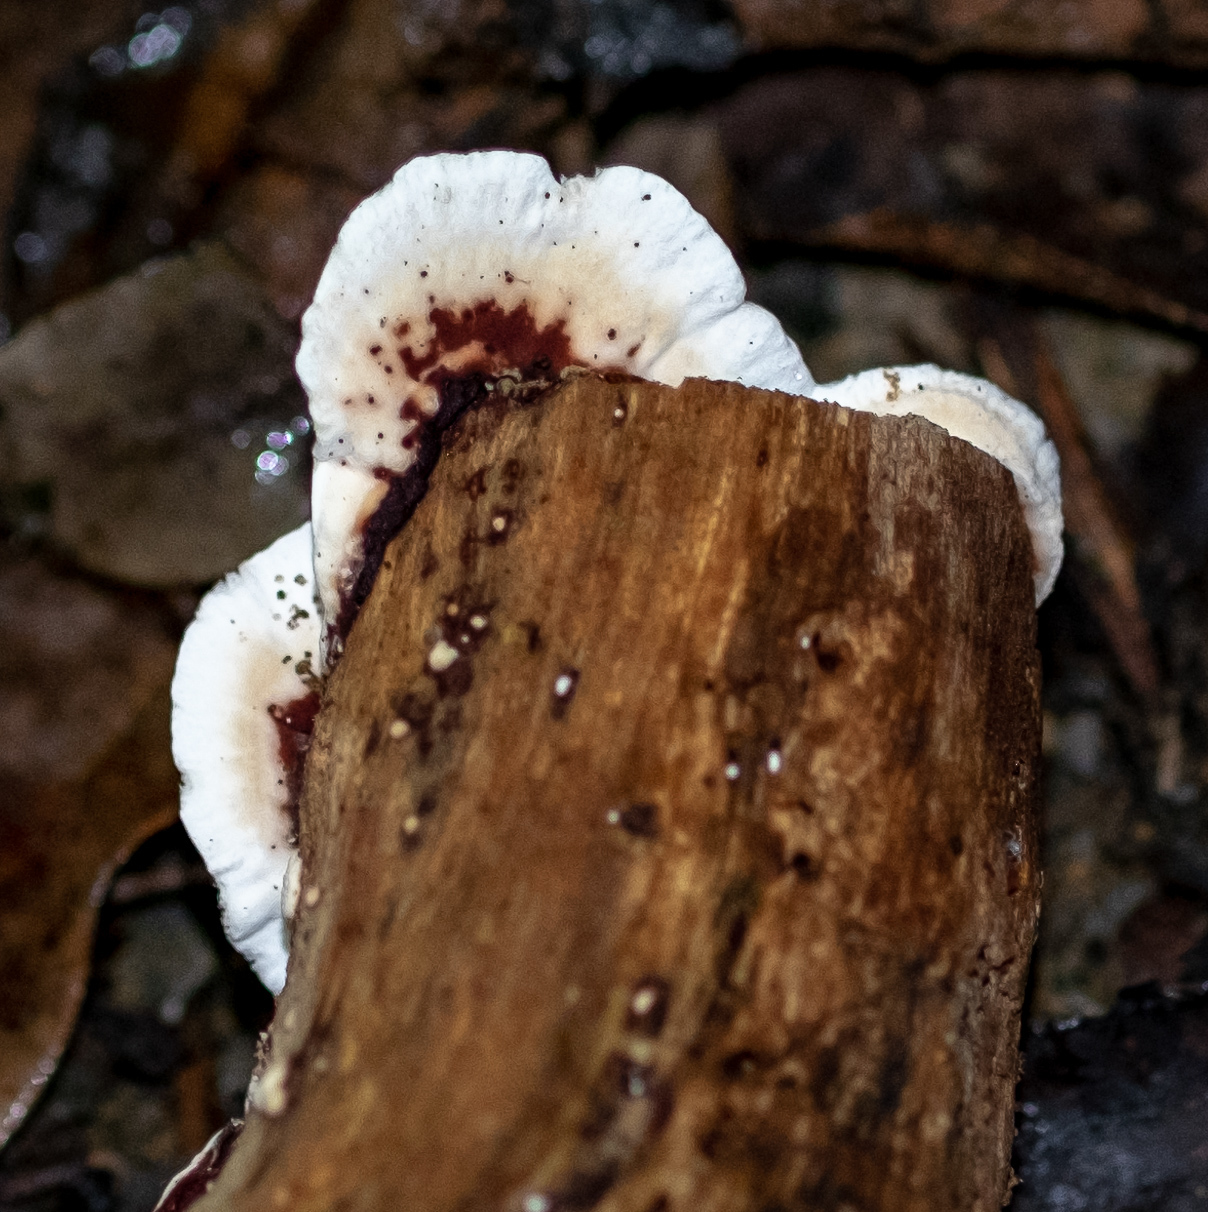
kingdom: Fungi
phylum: Basidiomycota
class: Agaricomycetes
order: Polyporales
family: Polyporaceae
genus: Earliella
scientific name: Earliella scabrosa
